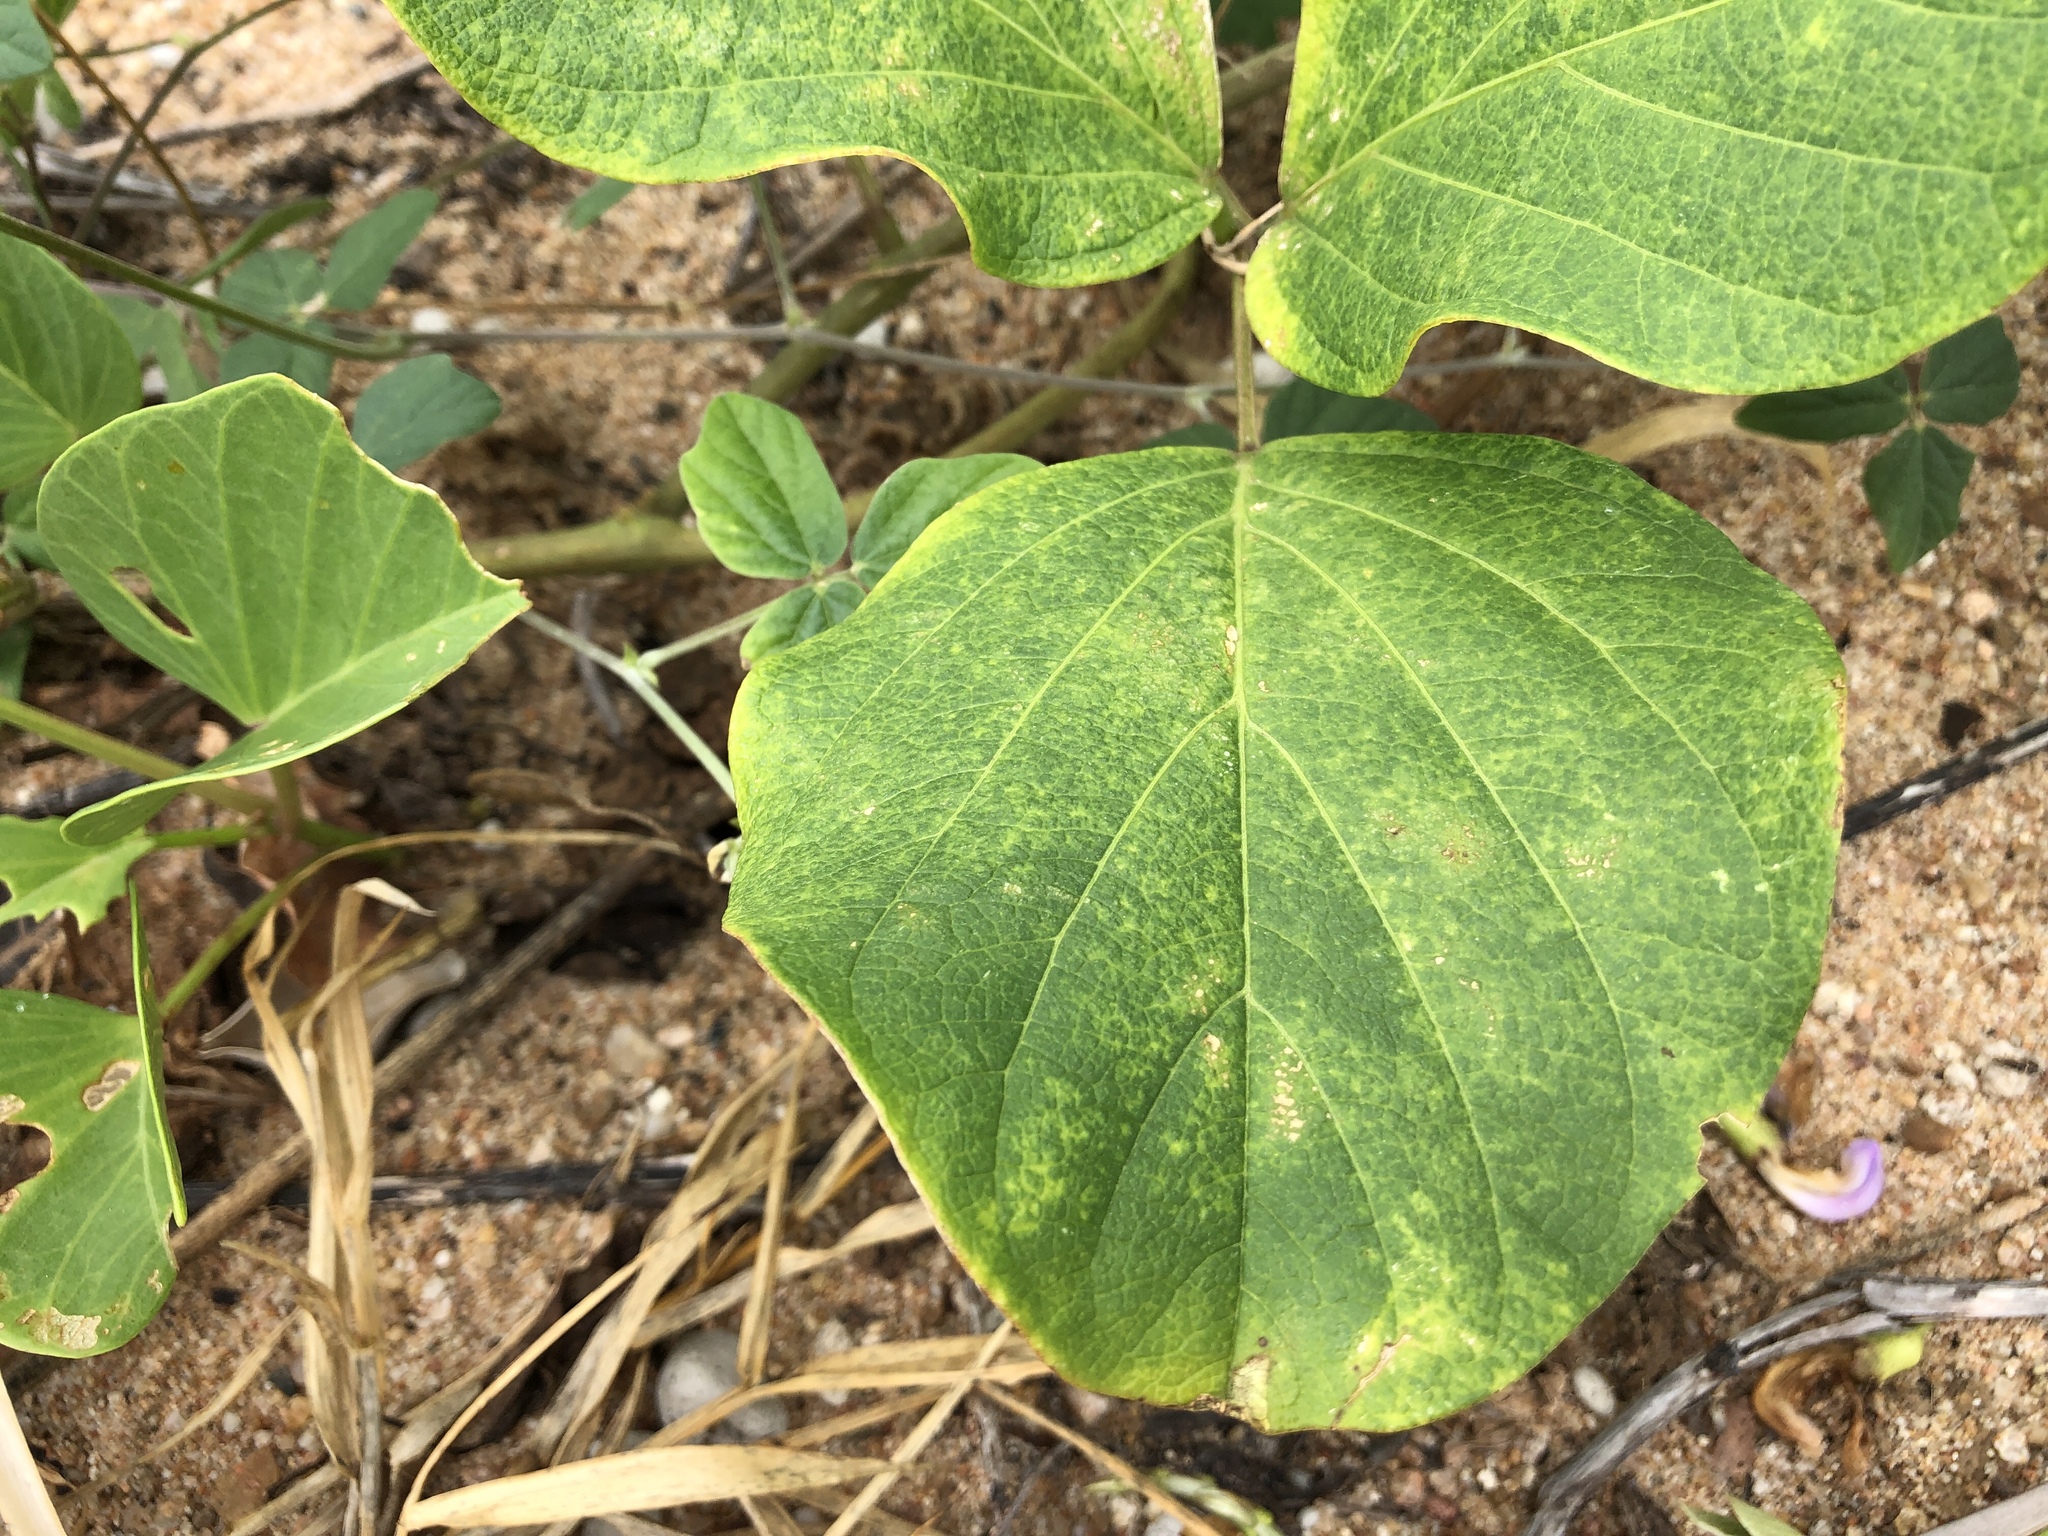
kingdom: Plantae
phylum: Tracheophyta
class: Magnoliopsida
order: Fabales
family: Fabaceae
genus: Canavalia
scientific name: Canavalia rosea
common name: Beach-bean
